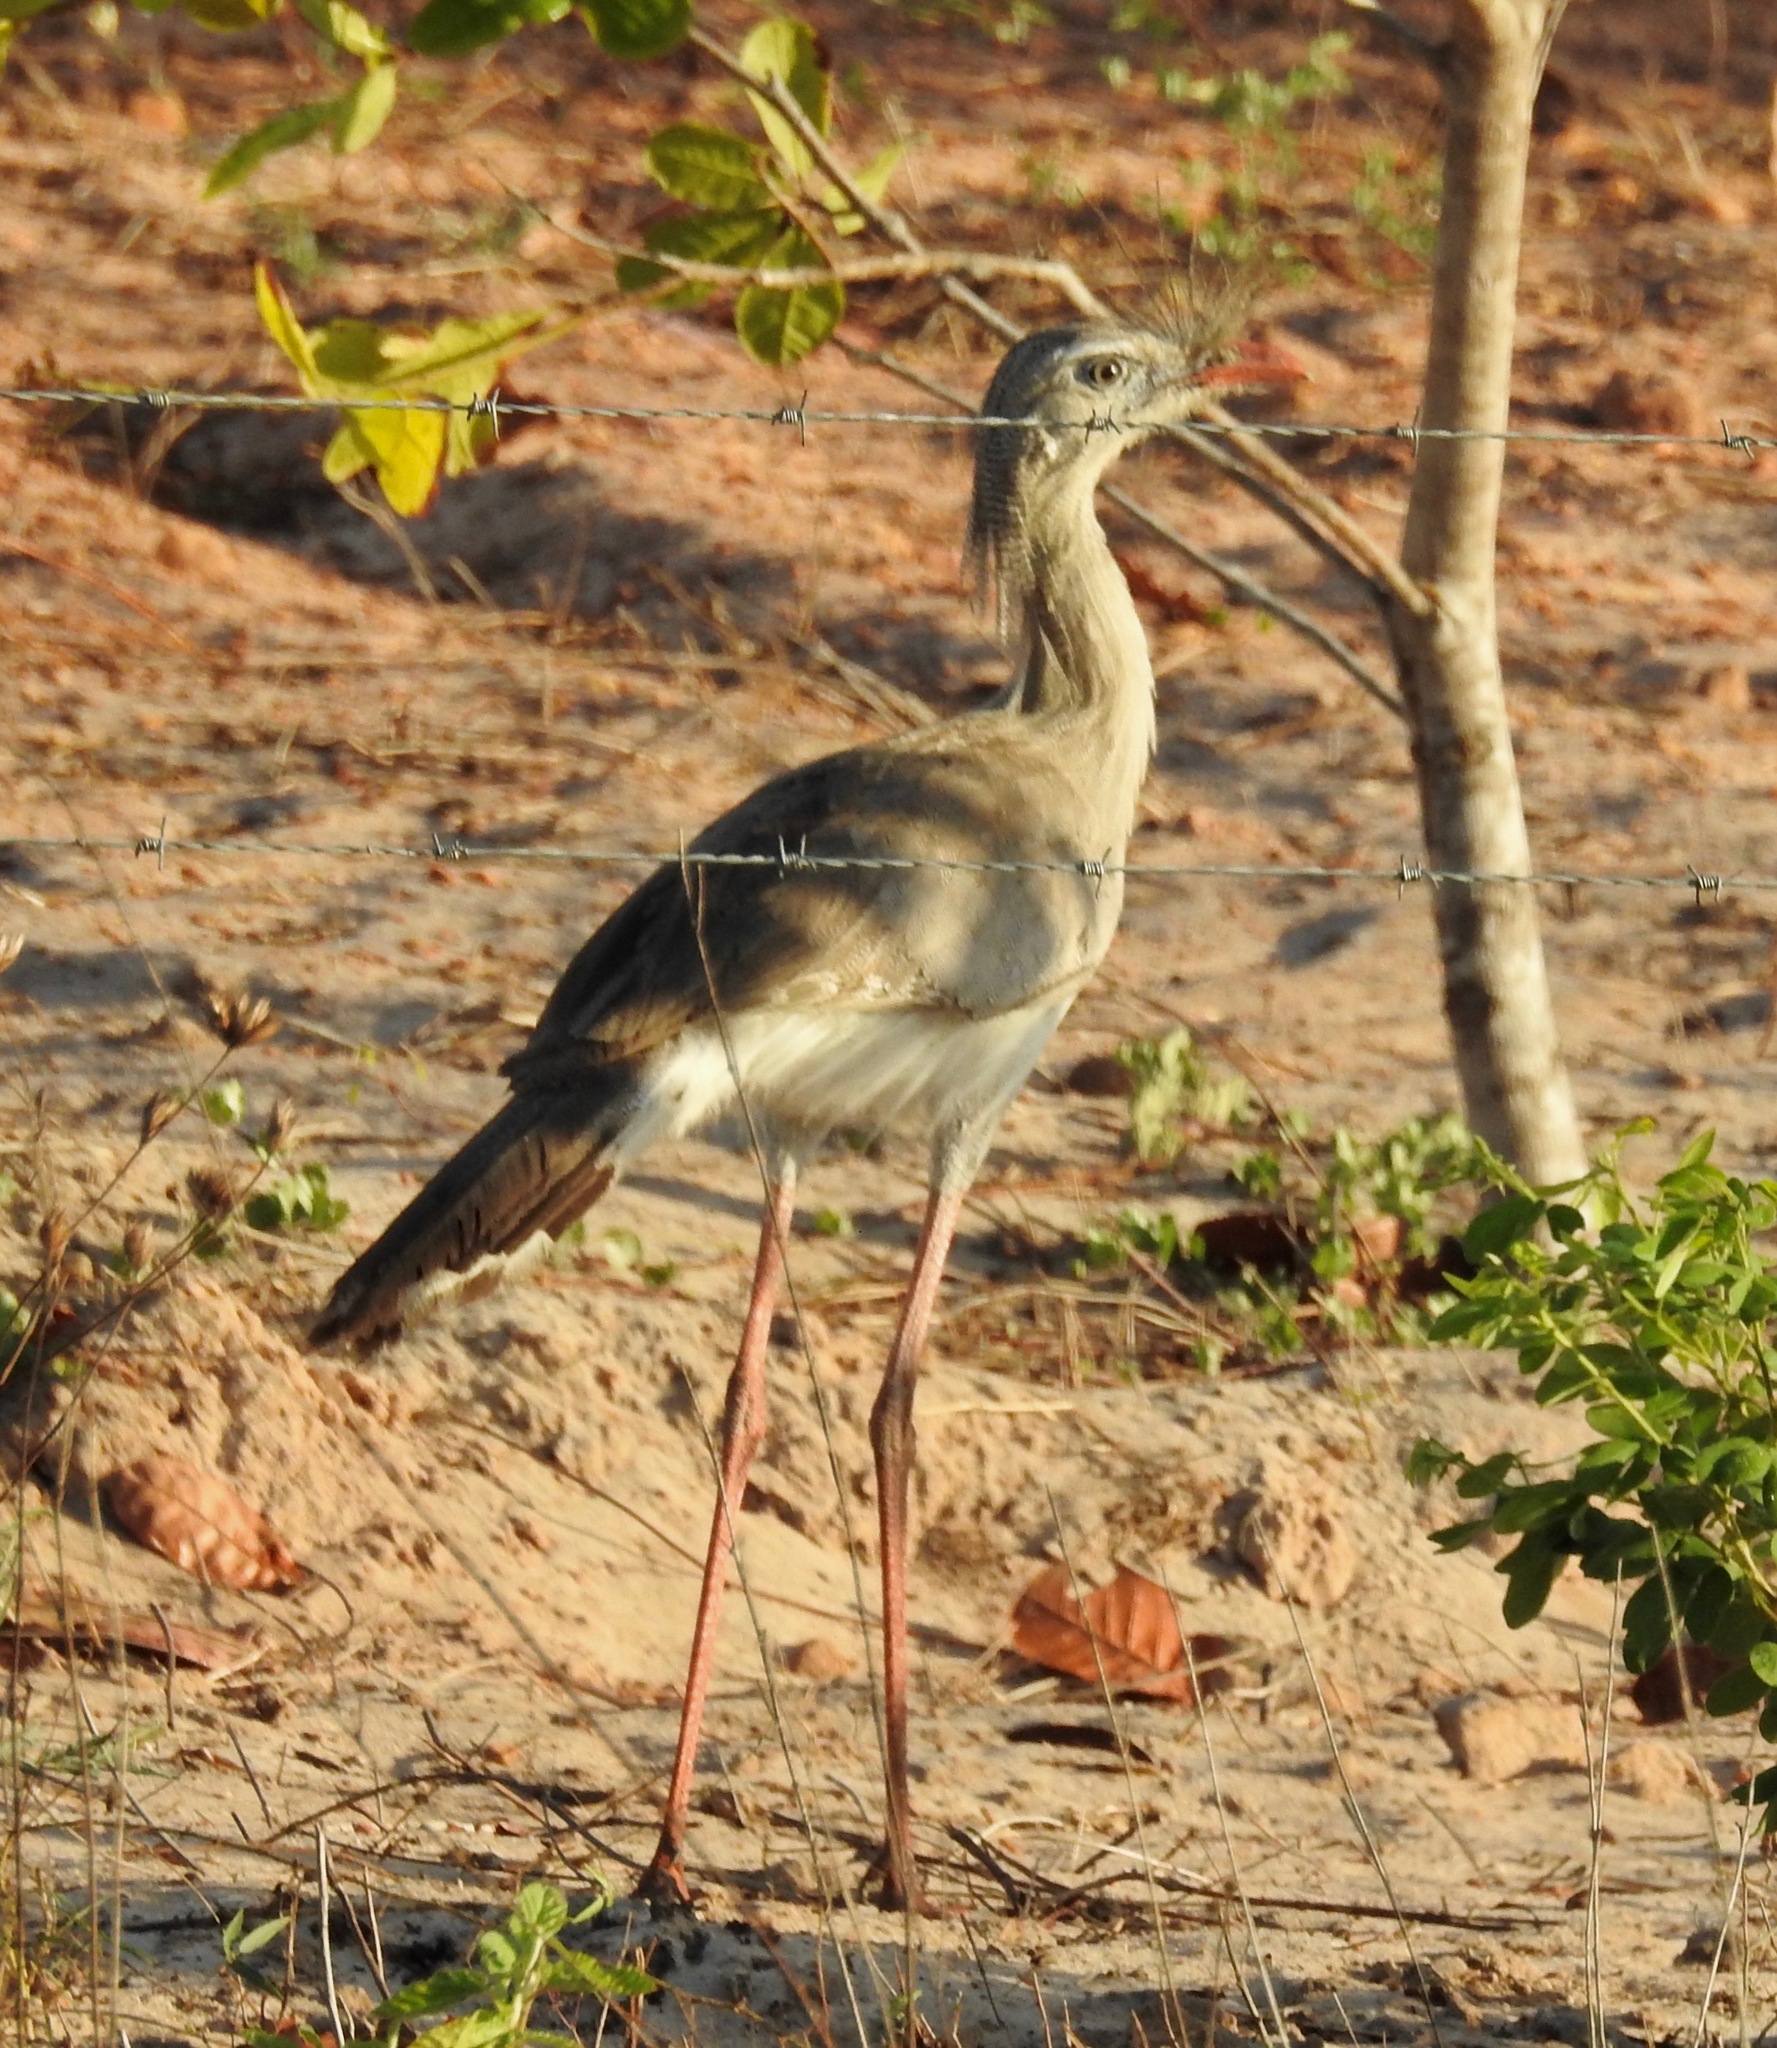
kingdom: Animalia
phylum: Chordata
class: Aves
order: Cariamiformes
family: Cariamidae
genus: Cariama
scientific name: Cariama cristata
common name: Red-legged seriema
